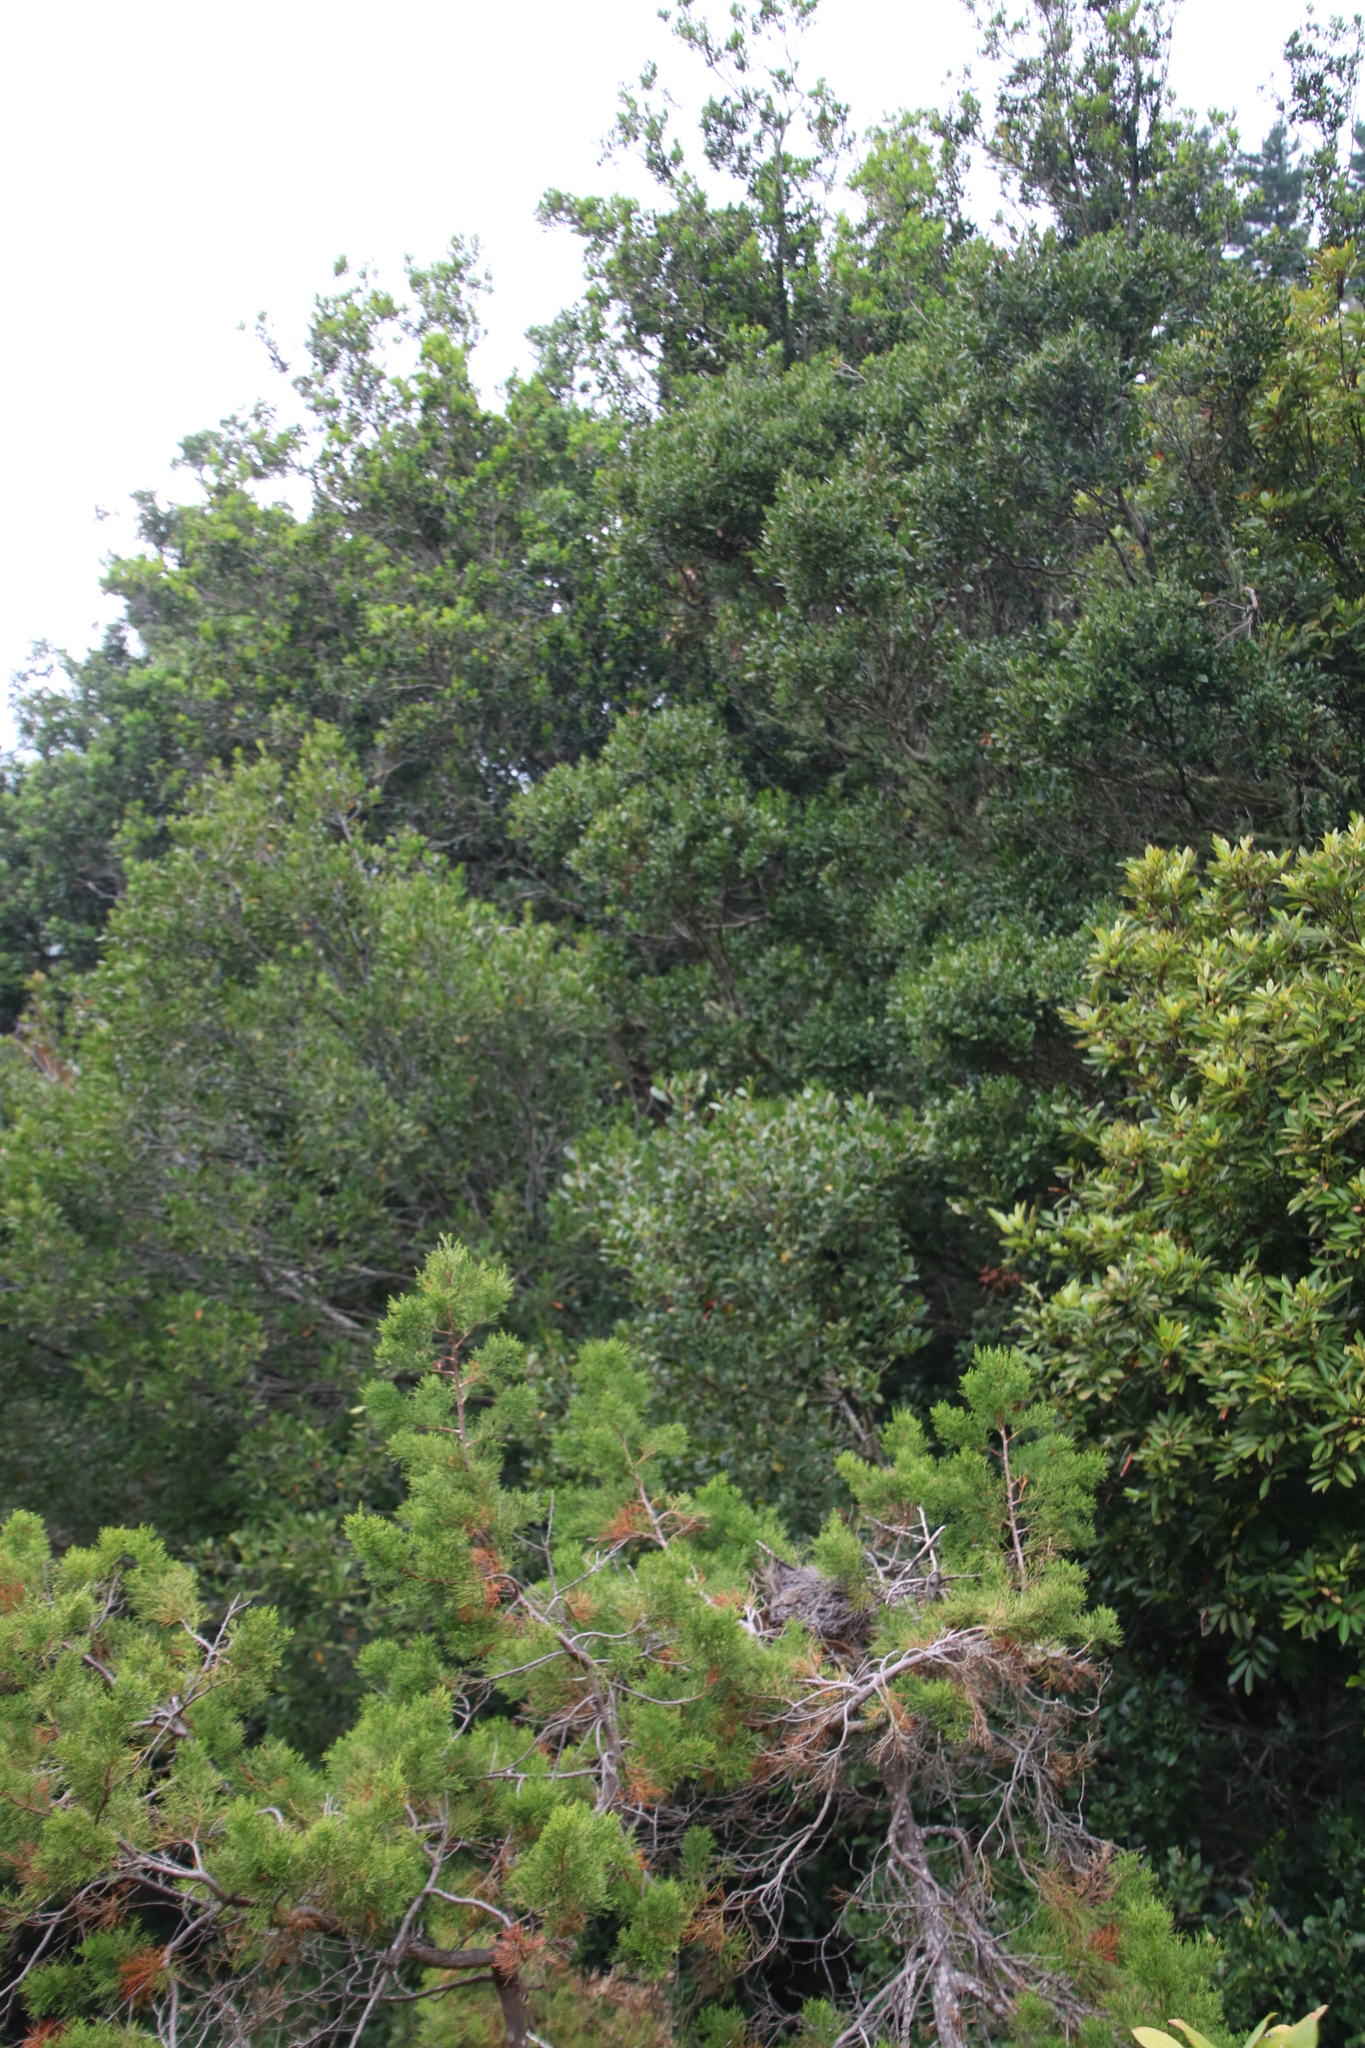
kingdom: Plantae
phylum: Tracheophyta
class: Magnoliopsida
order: Lamiales
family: Oleaceae
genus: Olea
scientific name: Olea capensis
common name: Black ironwood
